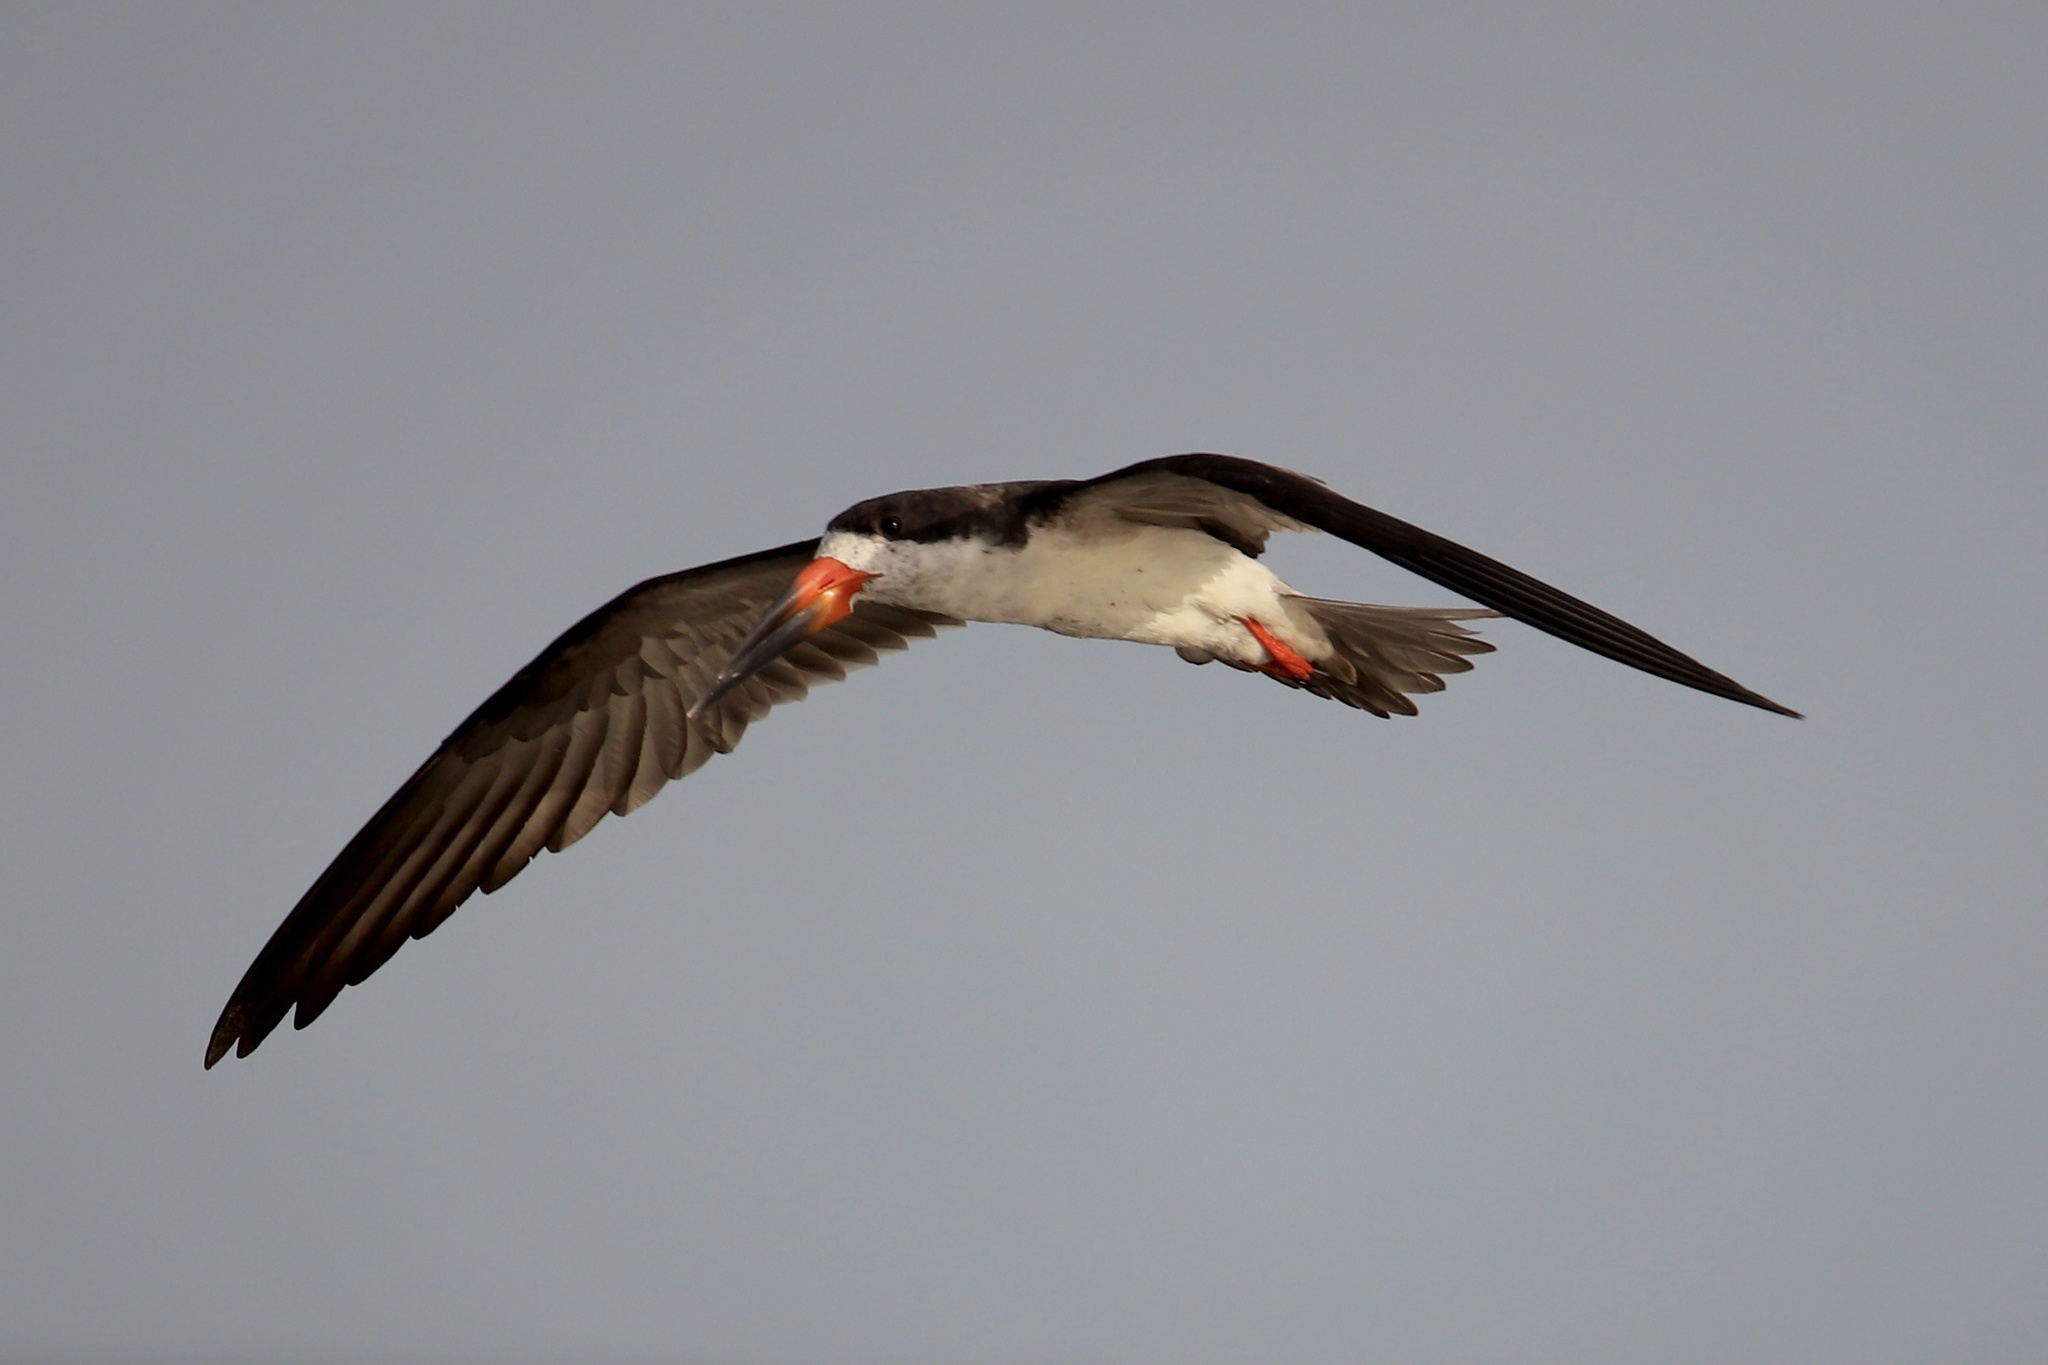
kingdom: Animalia
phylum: Chordata
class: Aves
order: Charadriiformes
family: Laridae
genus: Rynchops
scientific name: Rynchops niger
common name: Black skimmer
